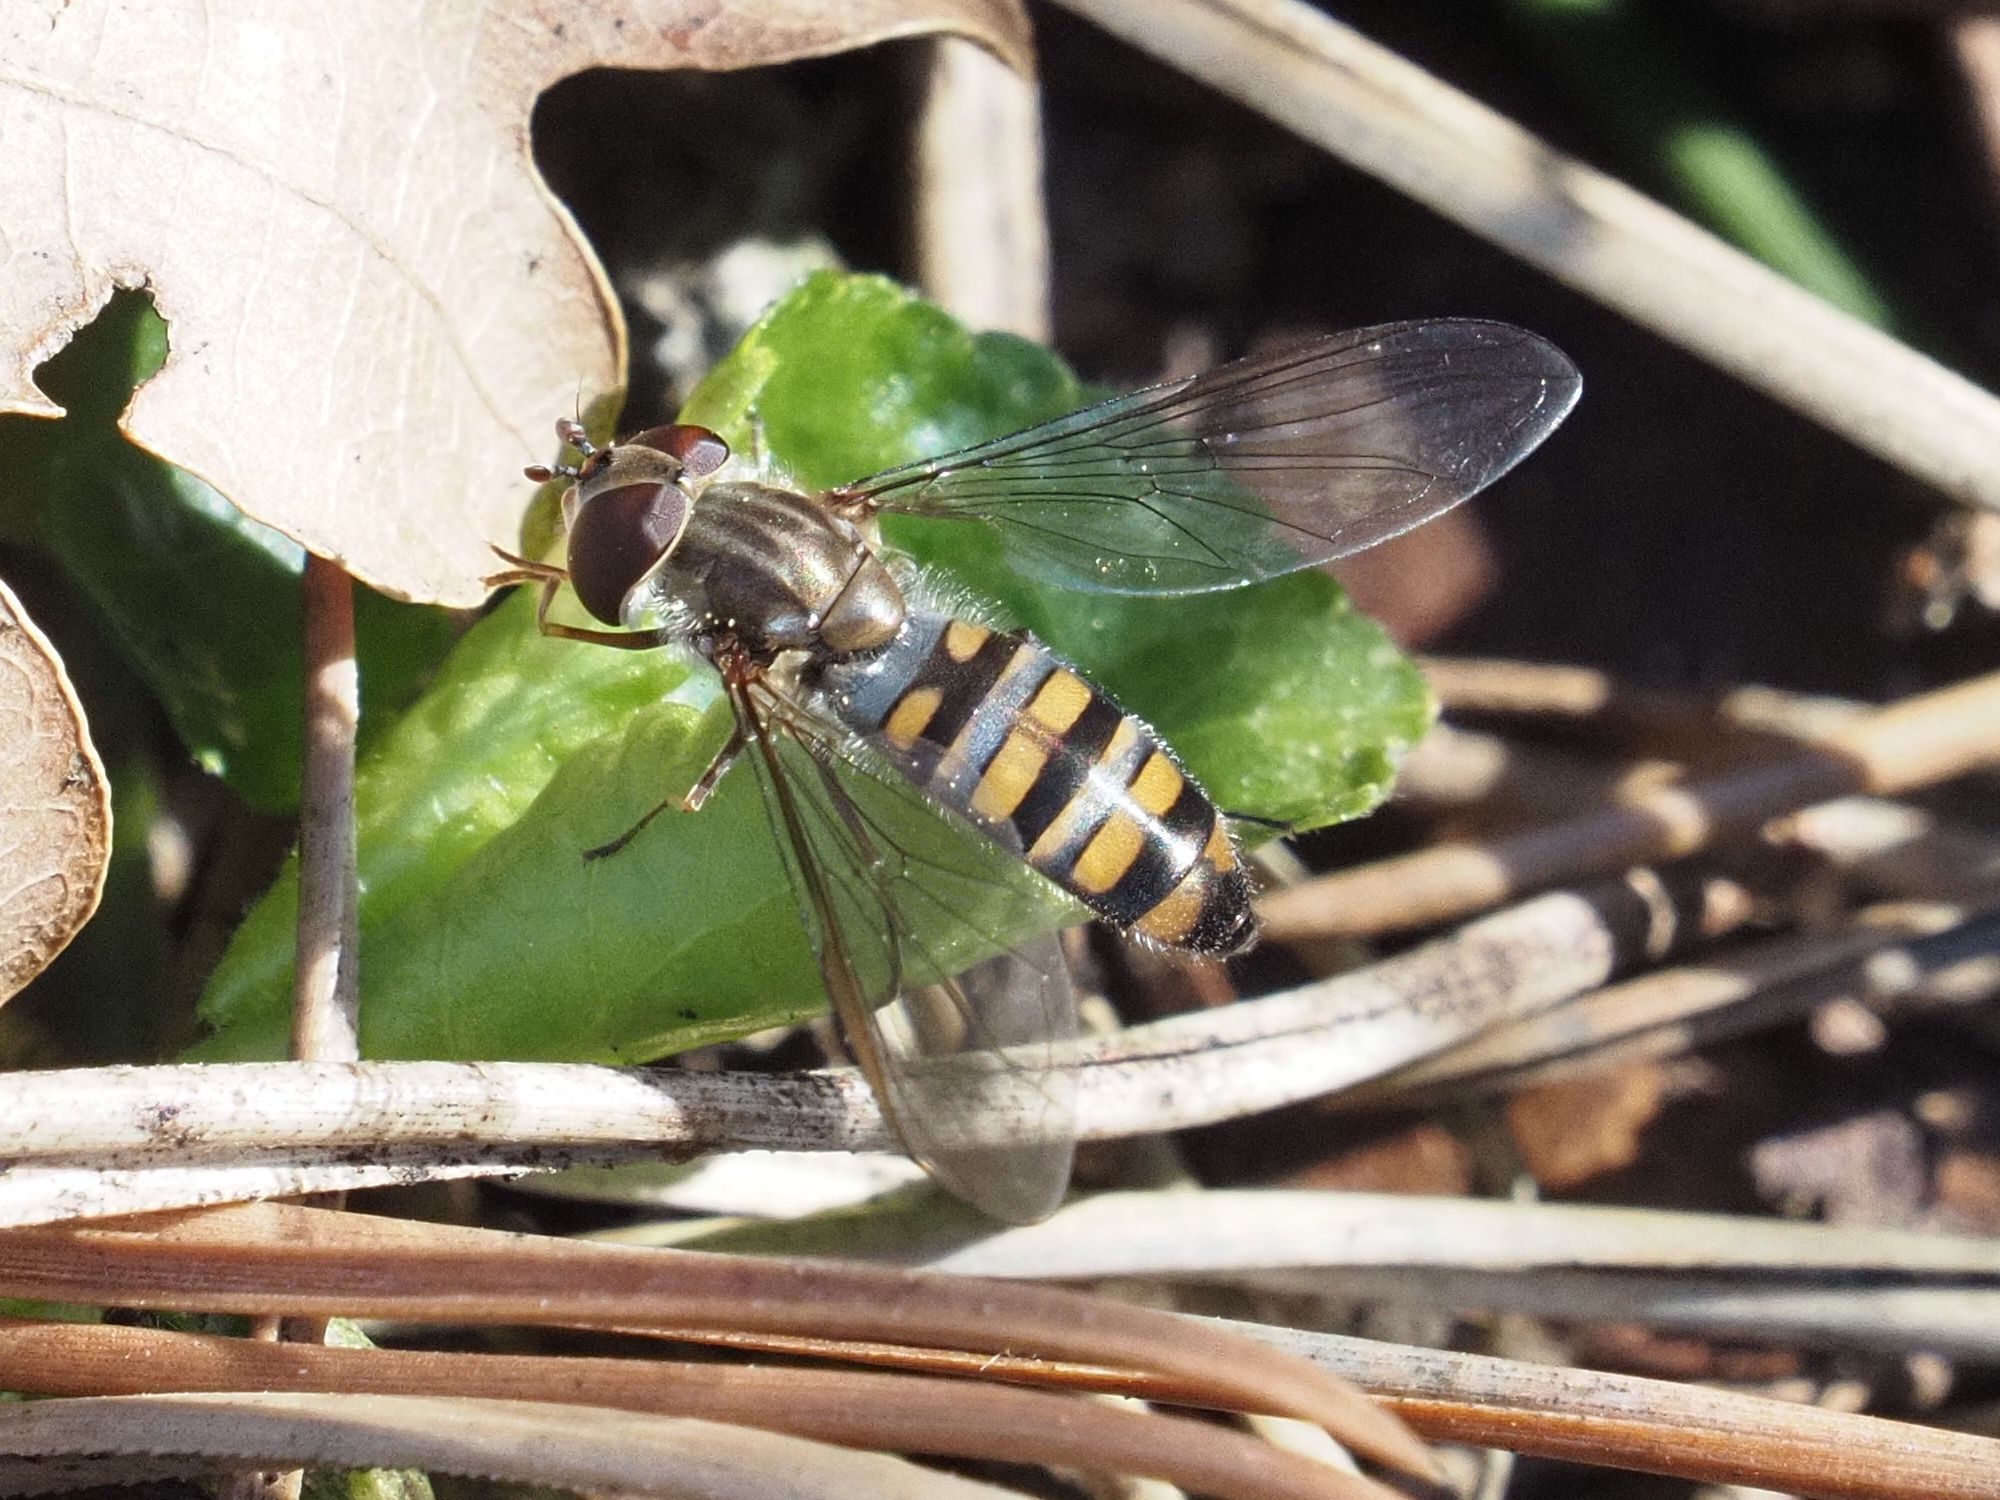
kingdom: Animalia
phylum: Arthropoda
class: Insecta
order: Diptera
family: Syrphidae
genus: Episyrphus
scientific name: Episyrphus balteatus
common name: Marmalade hoverfly
